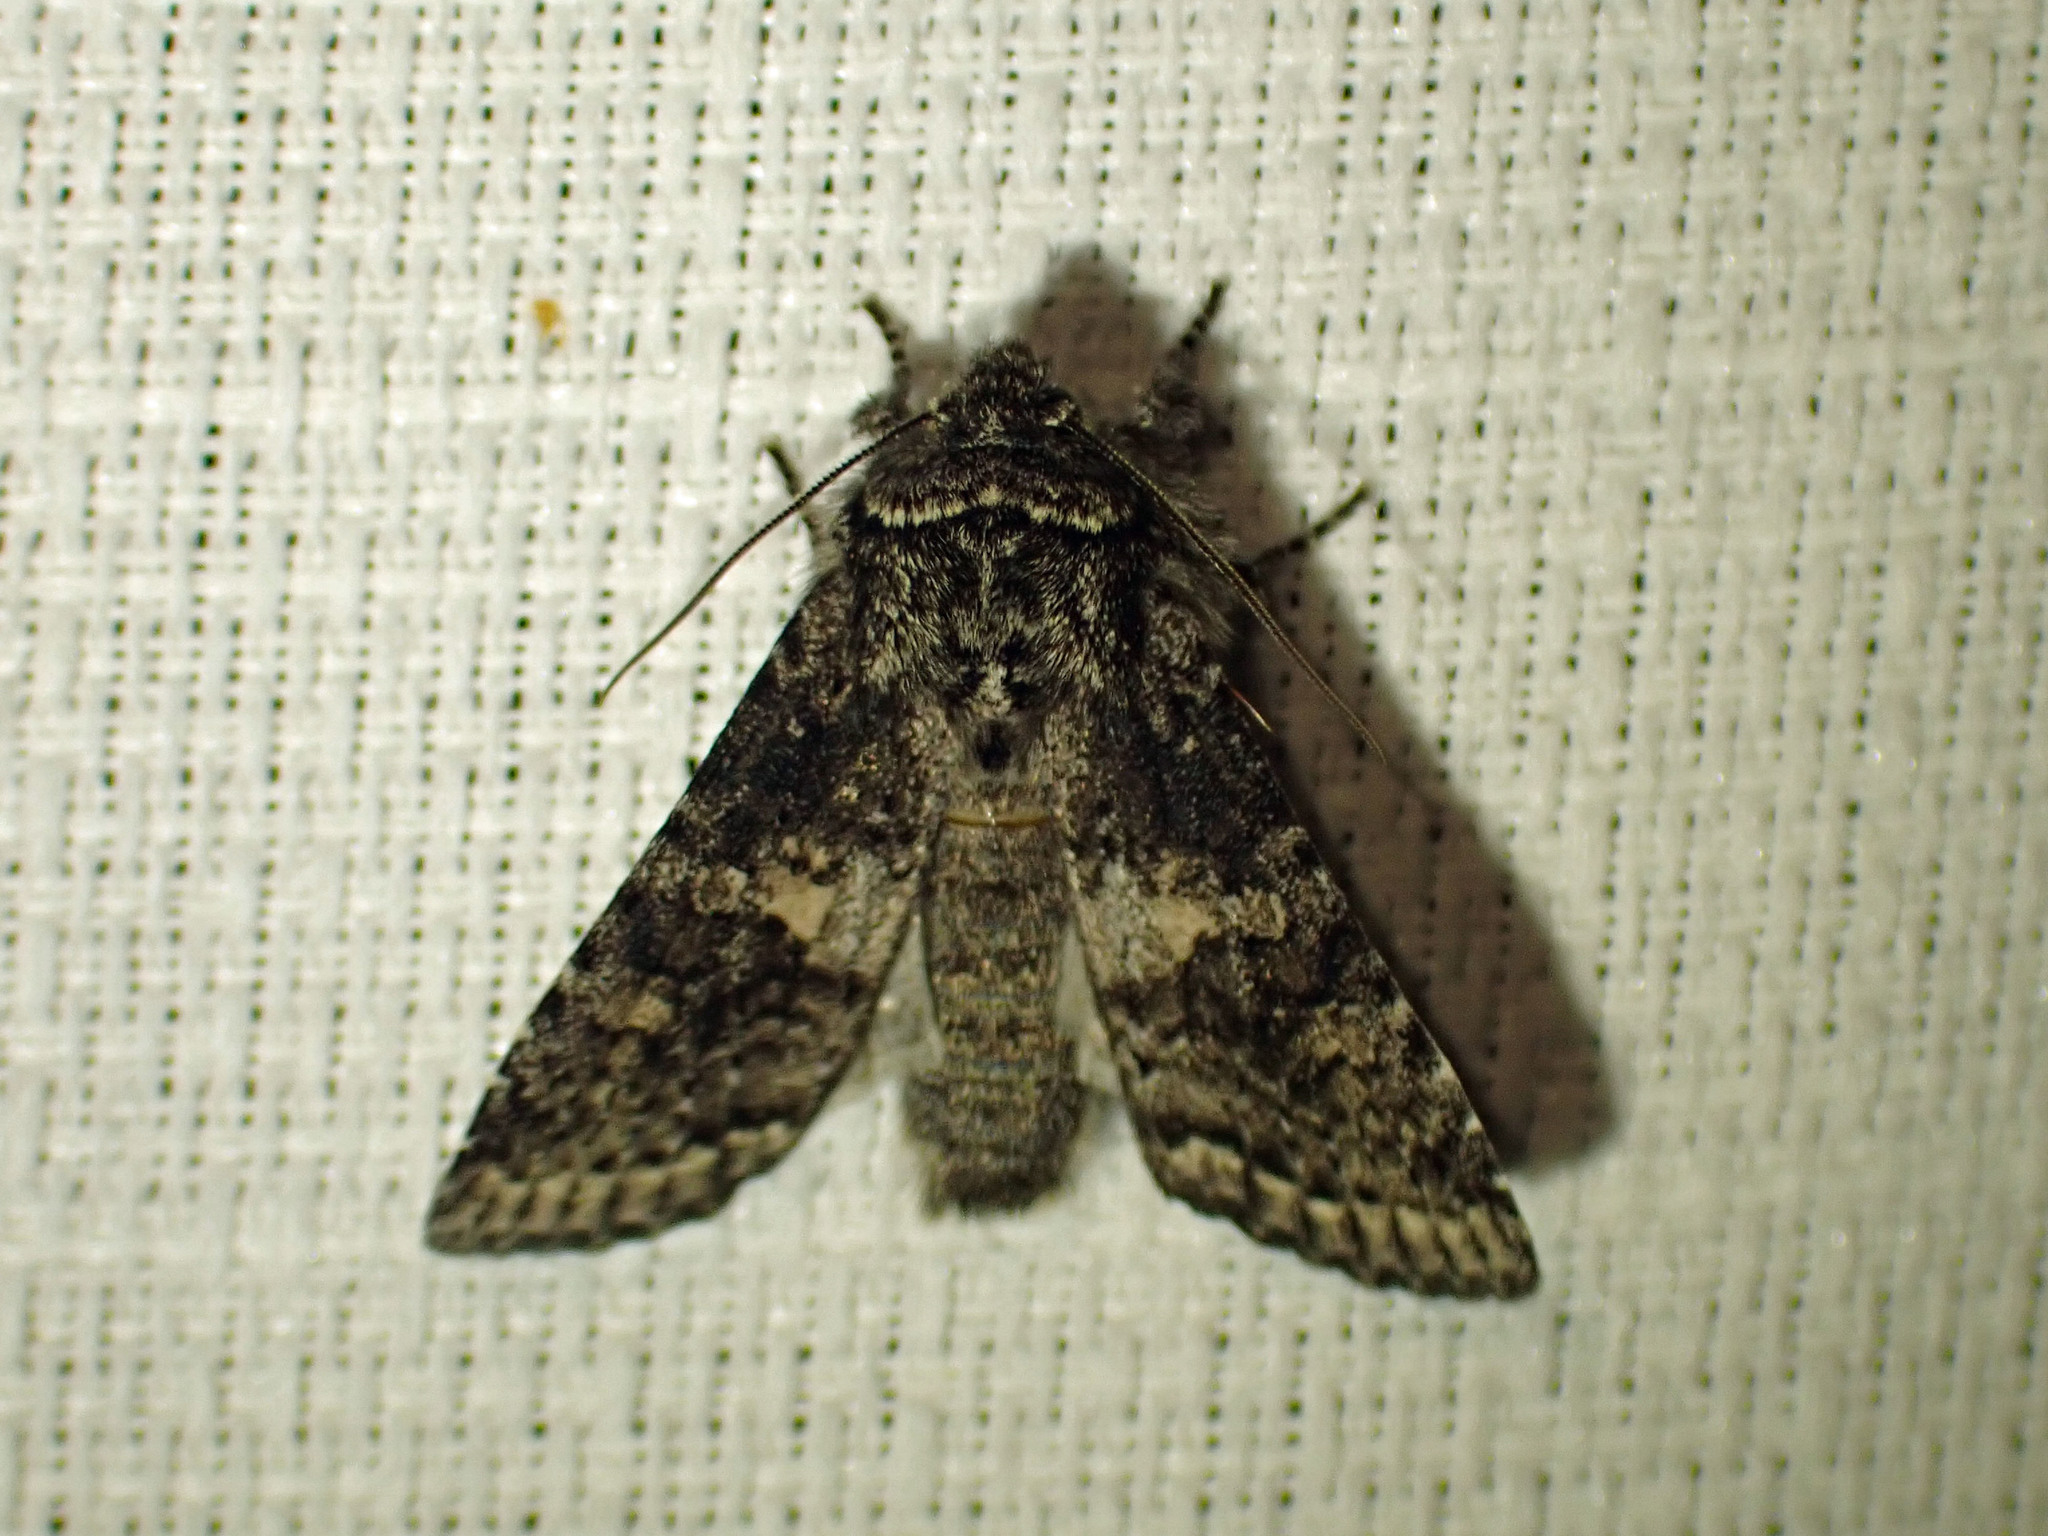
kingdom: Animalia
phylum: Arthropoda
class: Insecta
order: Lepidoptera
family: Noctuidae
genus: Egira
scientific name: Egira dolosa
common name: Lined black aspen cat.
